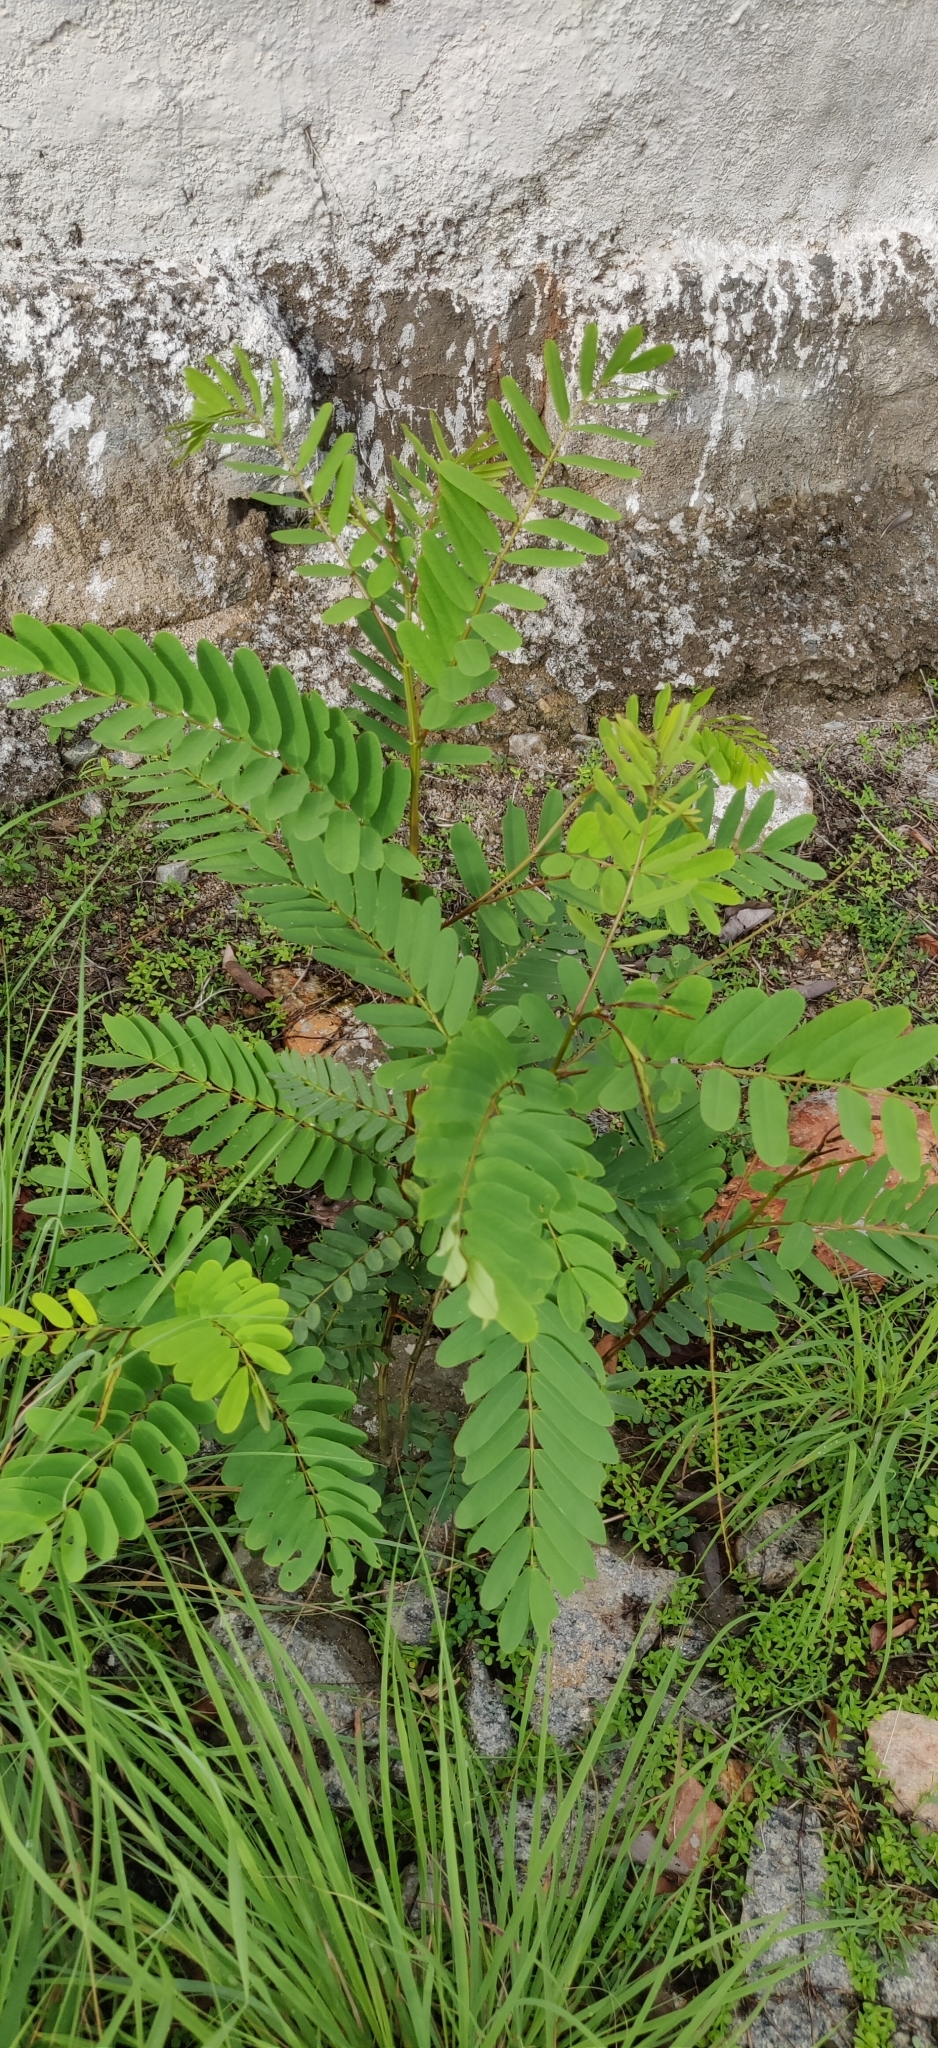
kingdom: Plantae
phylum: Tracheophyta
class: Magnoliopsida
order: Fabales
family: Fabaceae
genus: Senna
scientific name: Senna siamea
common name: Siamese cassia
